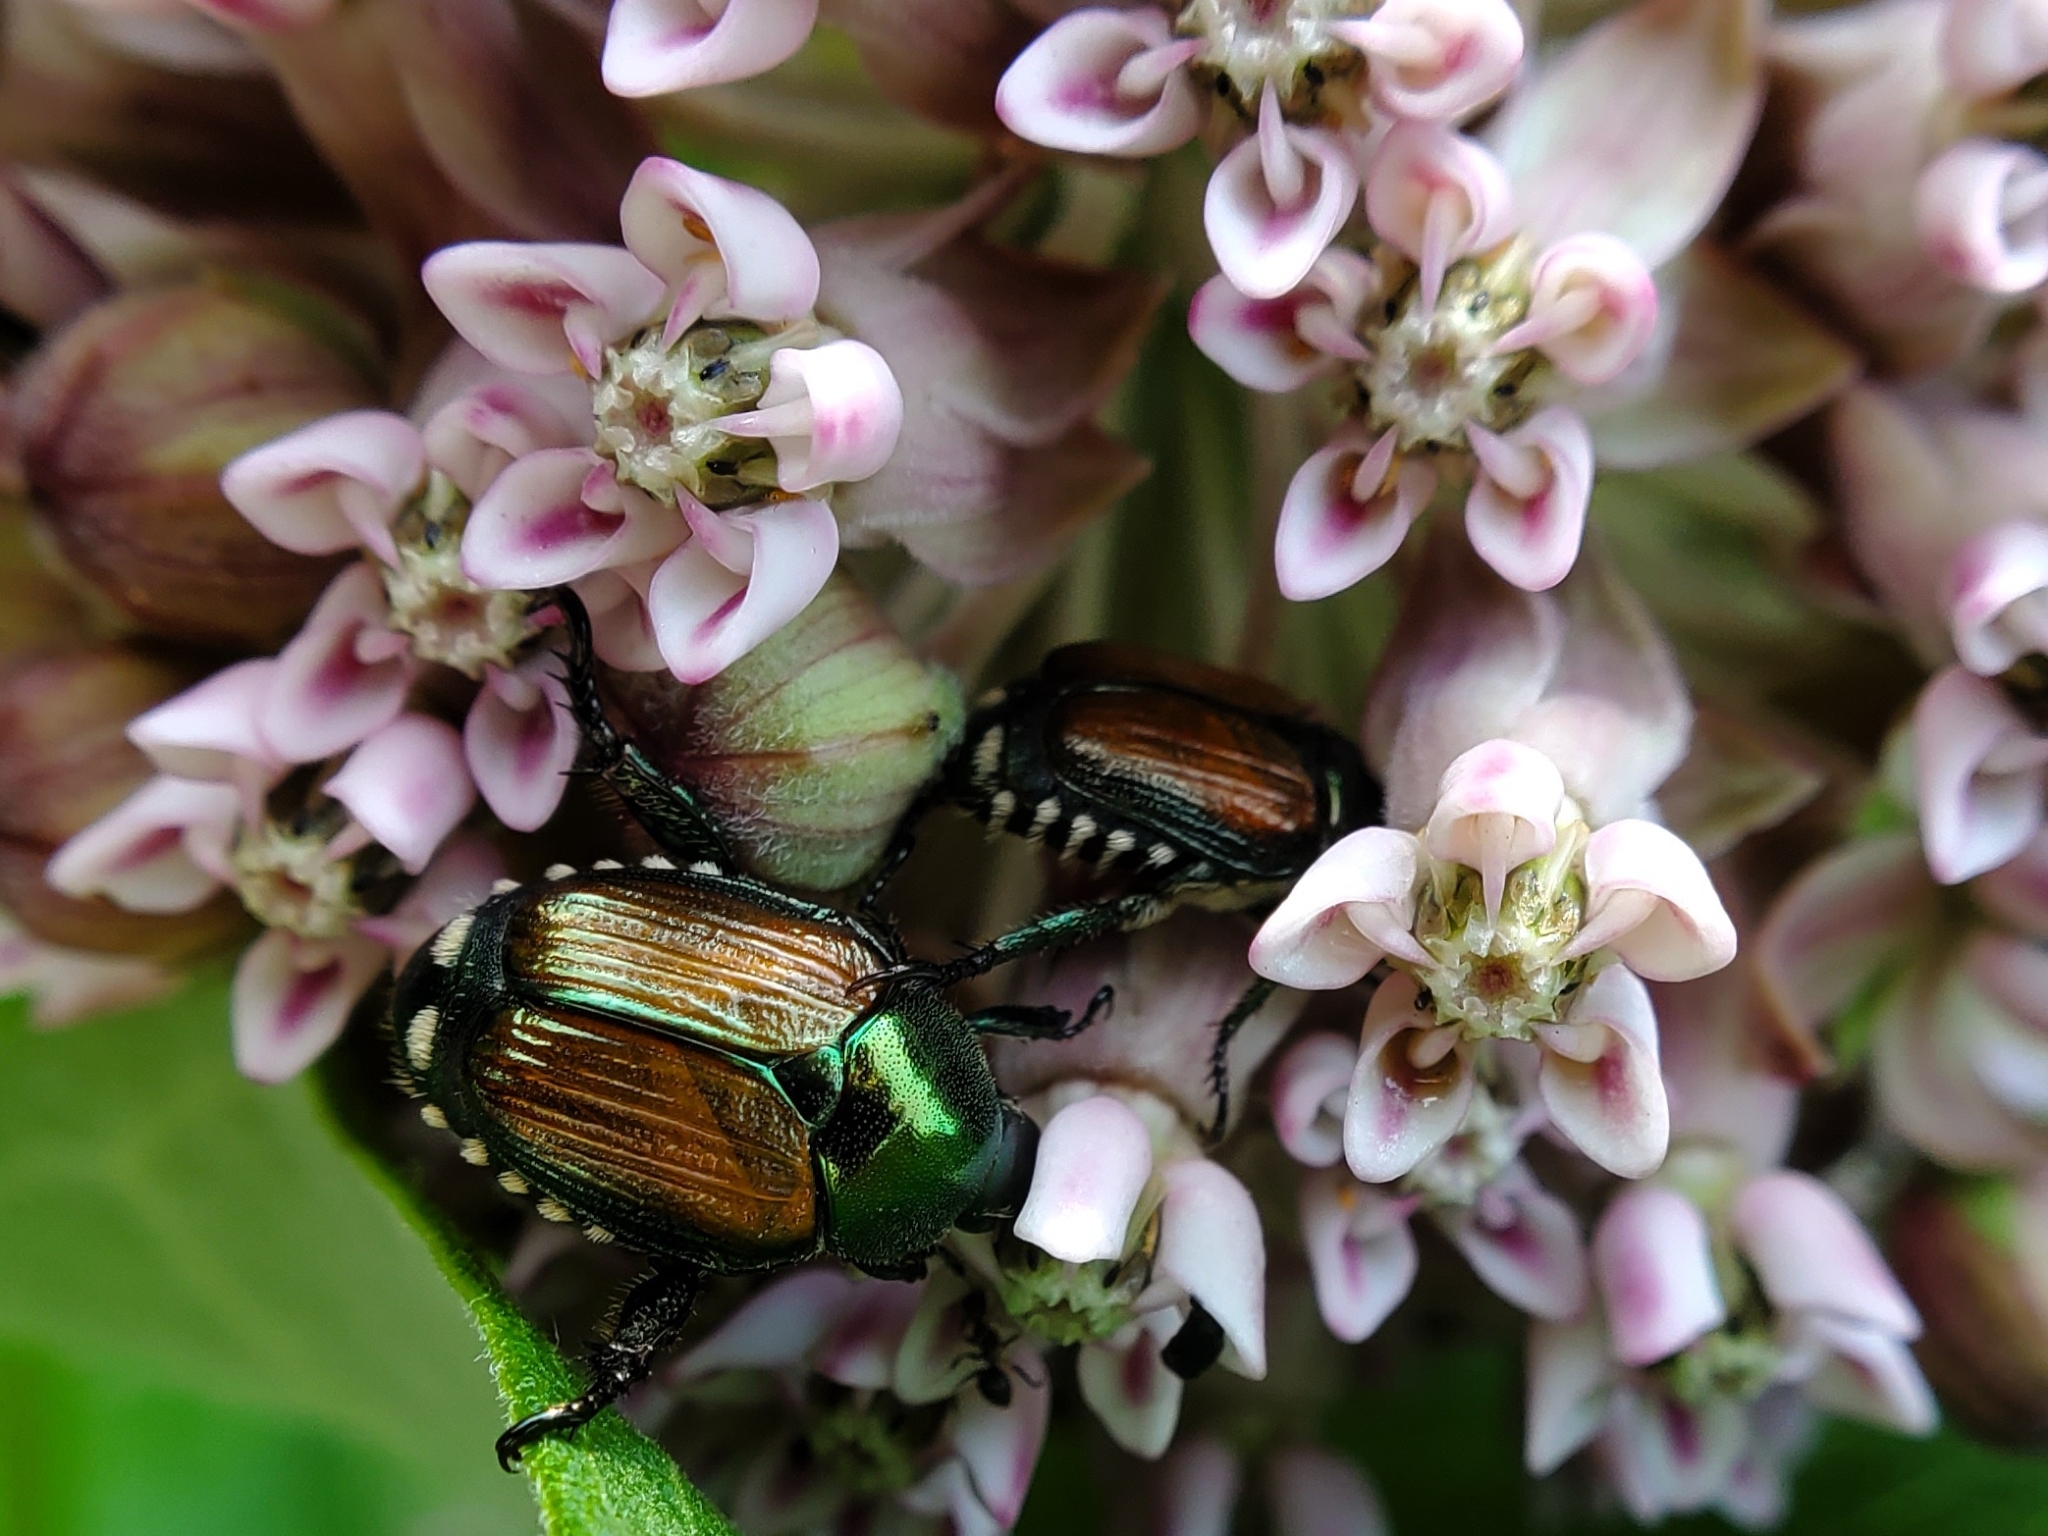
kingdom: Animalia
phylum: Arthropoda
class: Insecta
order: Coleoptera
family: Scarabaeidae
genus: Popillia
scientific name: Popillia japonica
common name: Japanese beetle
